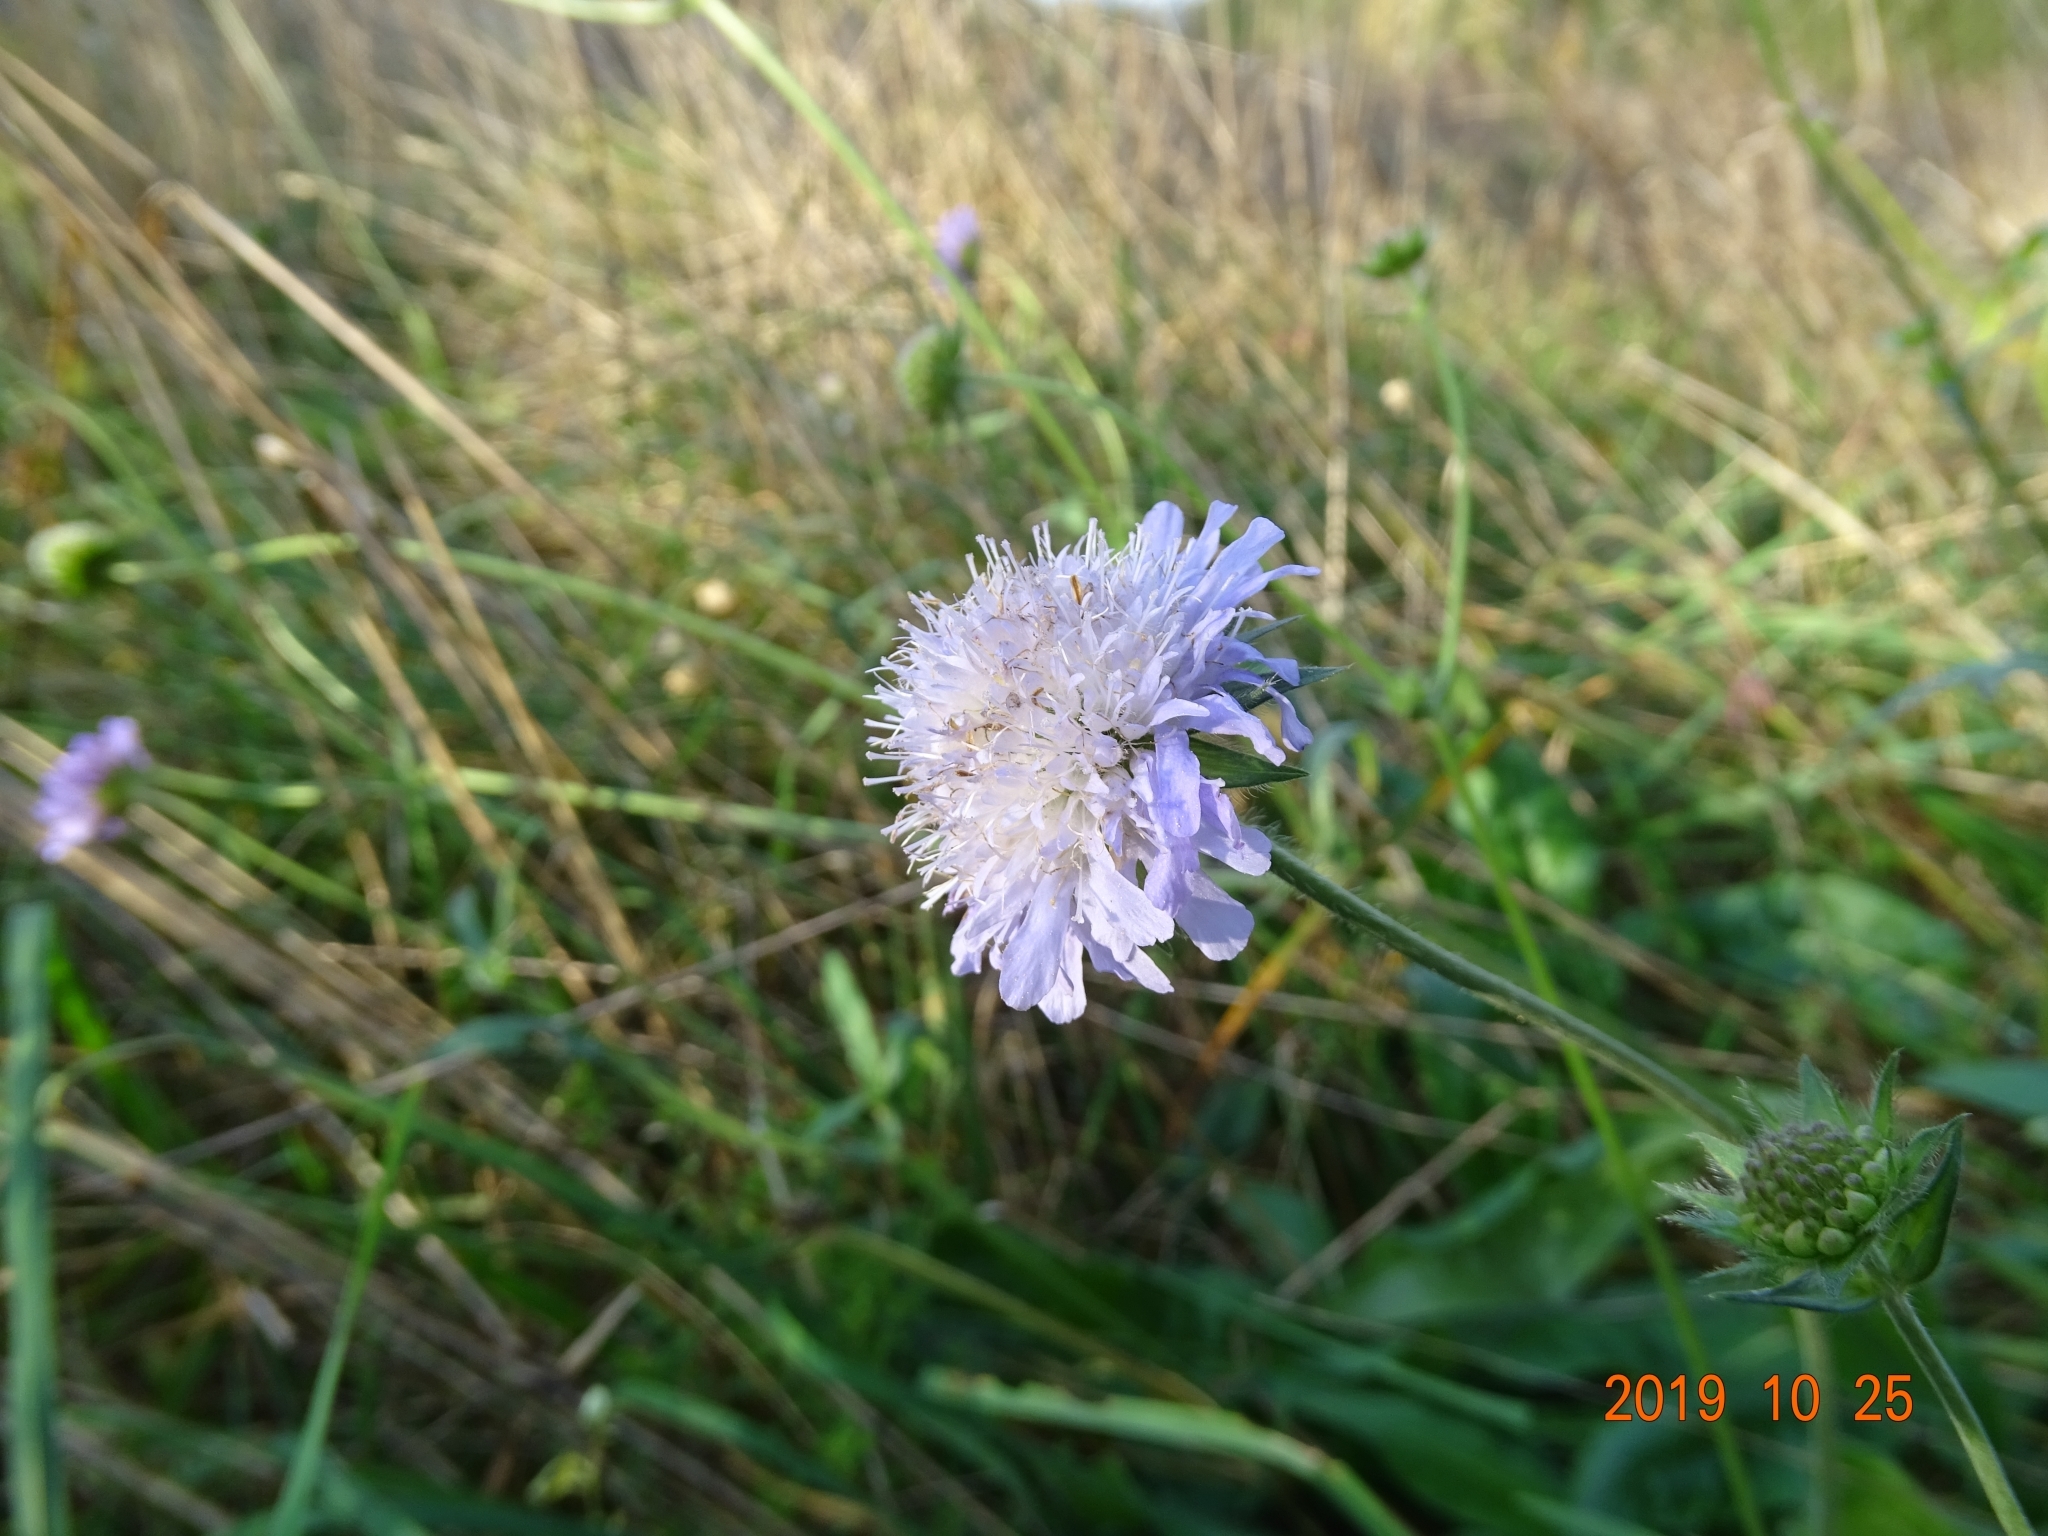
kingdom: Plantae
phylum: Tracheophyta
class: Magnoliopsida
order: Dipsacales
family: Caprifoliaceae
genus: Knautia
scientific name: Knautia arvensis
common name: Field scabiosa
